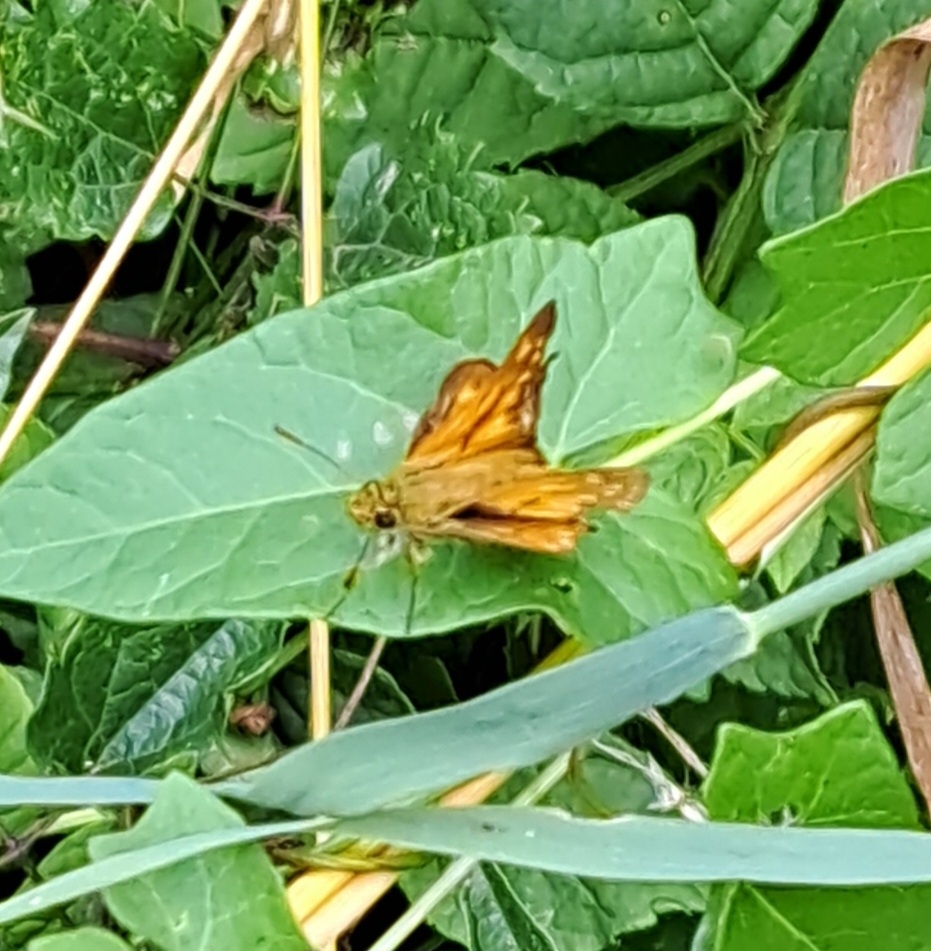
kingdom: Animalia
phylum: Arthropoda
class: Insecta
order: Lepidoptera
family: Hesperiidae
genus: Ochlodes
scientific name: Ochlodes venata
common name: Large skipper
